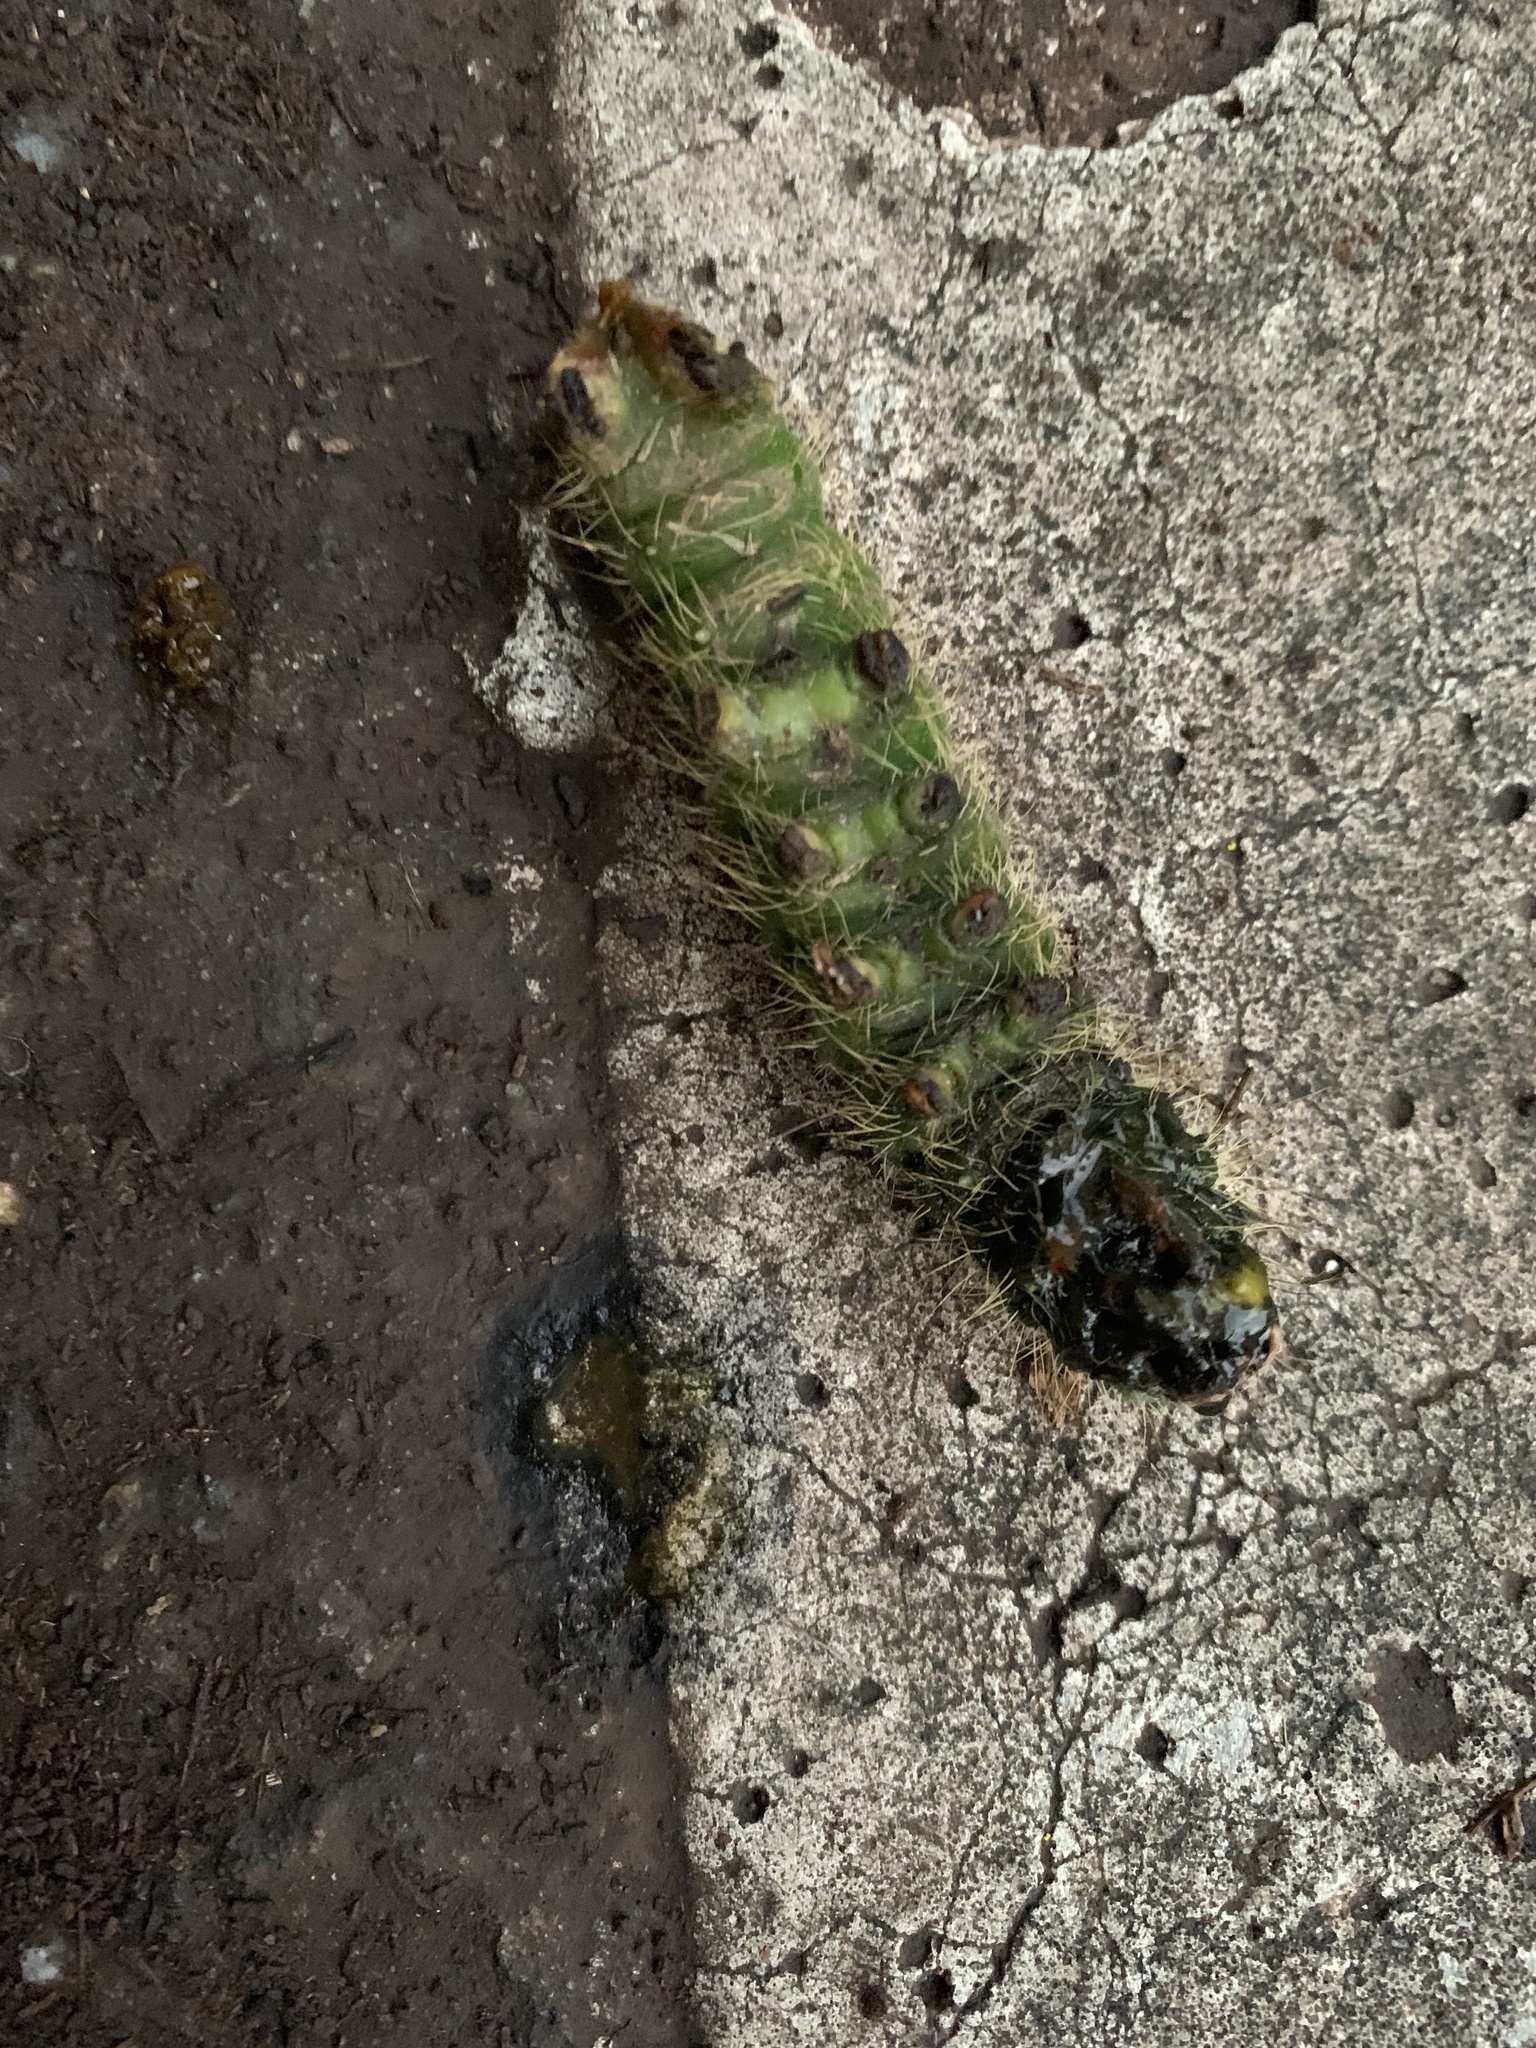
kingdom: Animalia
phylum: Arthropoda
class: Insecta
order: Lepidoptera
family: Saturniidae
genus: Eacles
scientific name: Eacles imperialis
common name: Imperial moth
